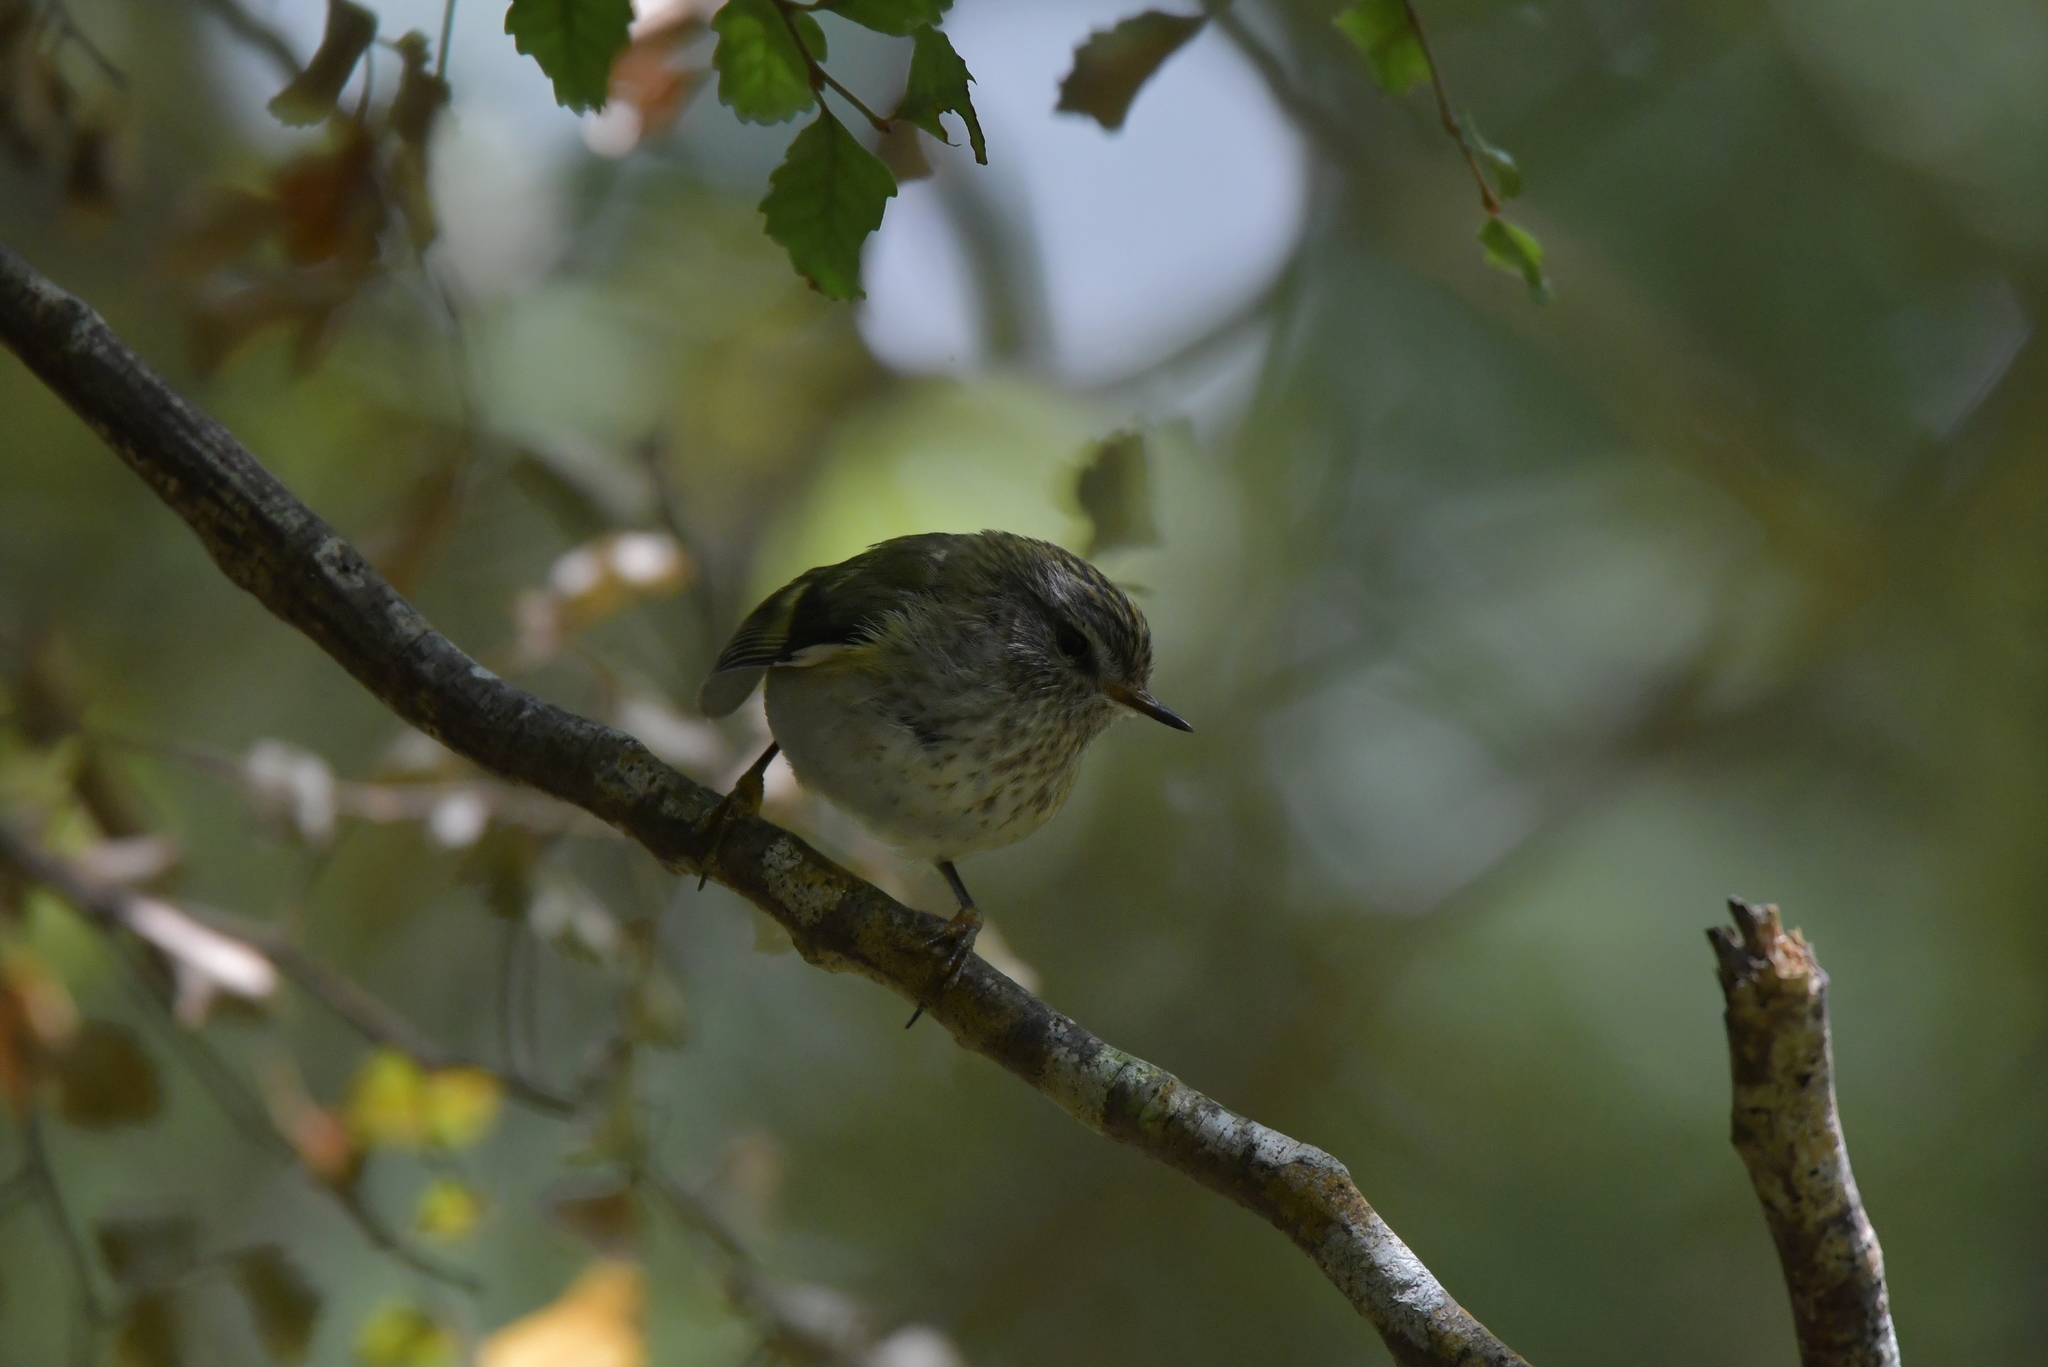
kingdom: Animalia
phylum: Chordata
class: Aves
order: Passeriformes
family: Acanthisittidae
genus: Acanthisitta
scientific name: Acanthisitta chloris
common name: Rifleman
